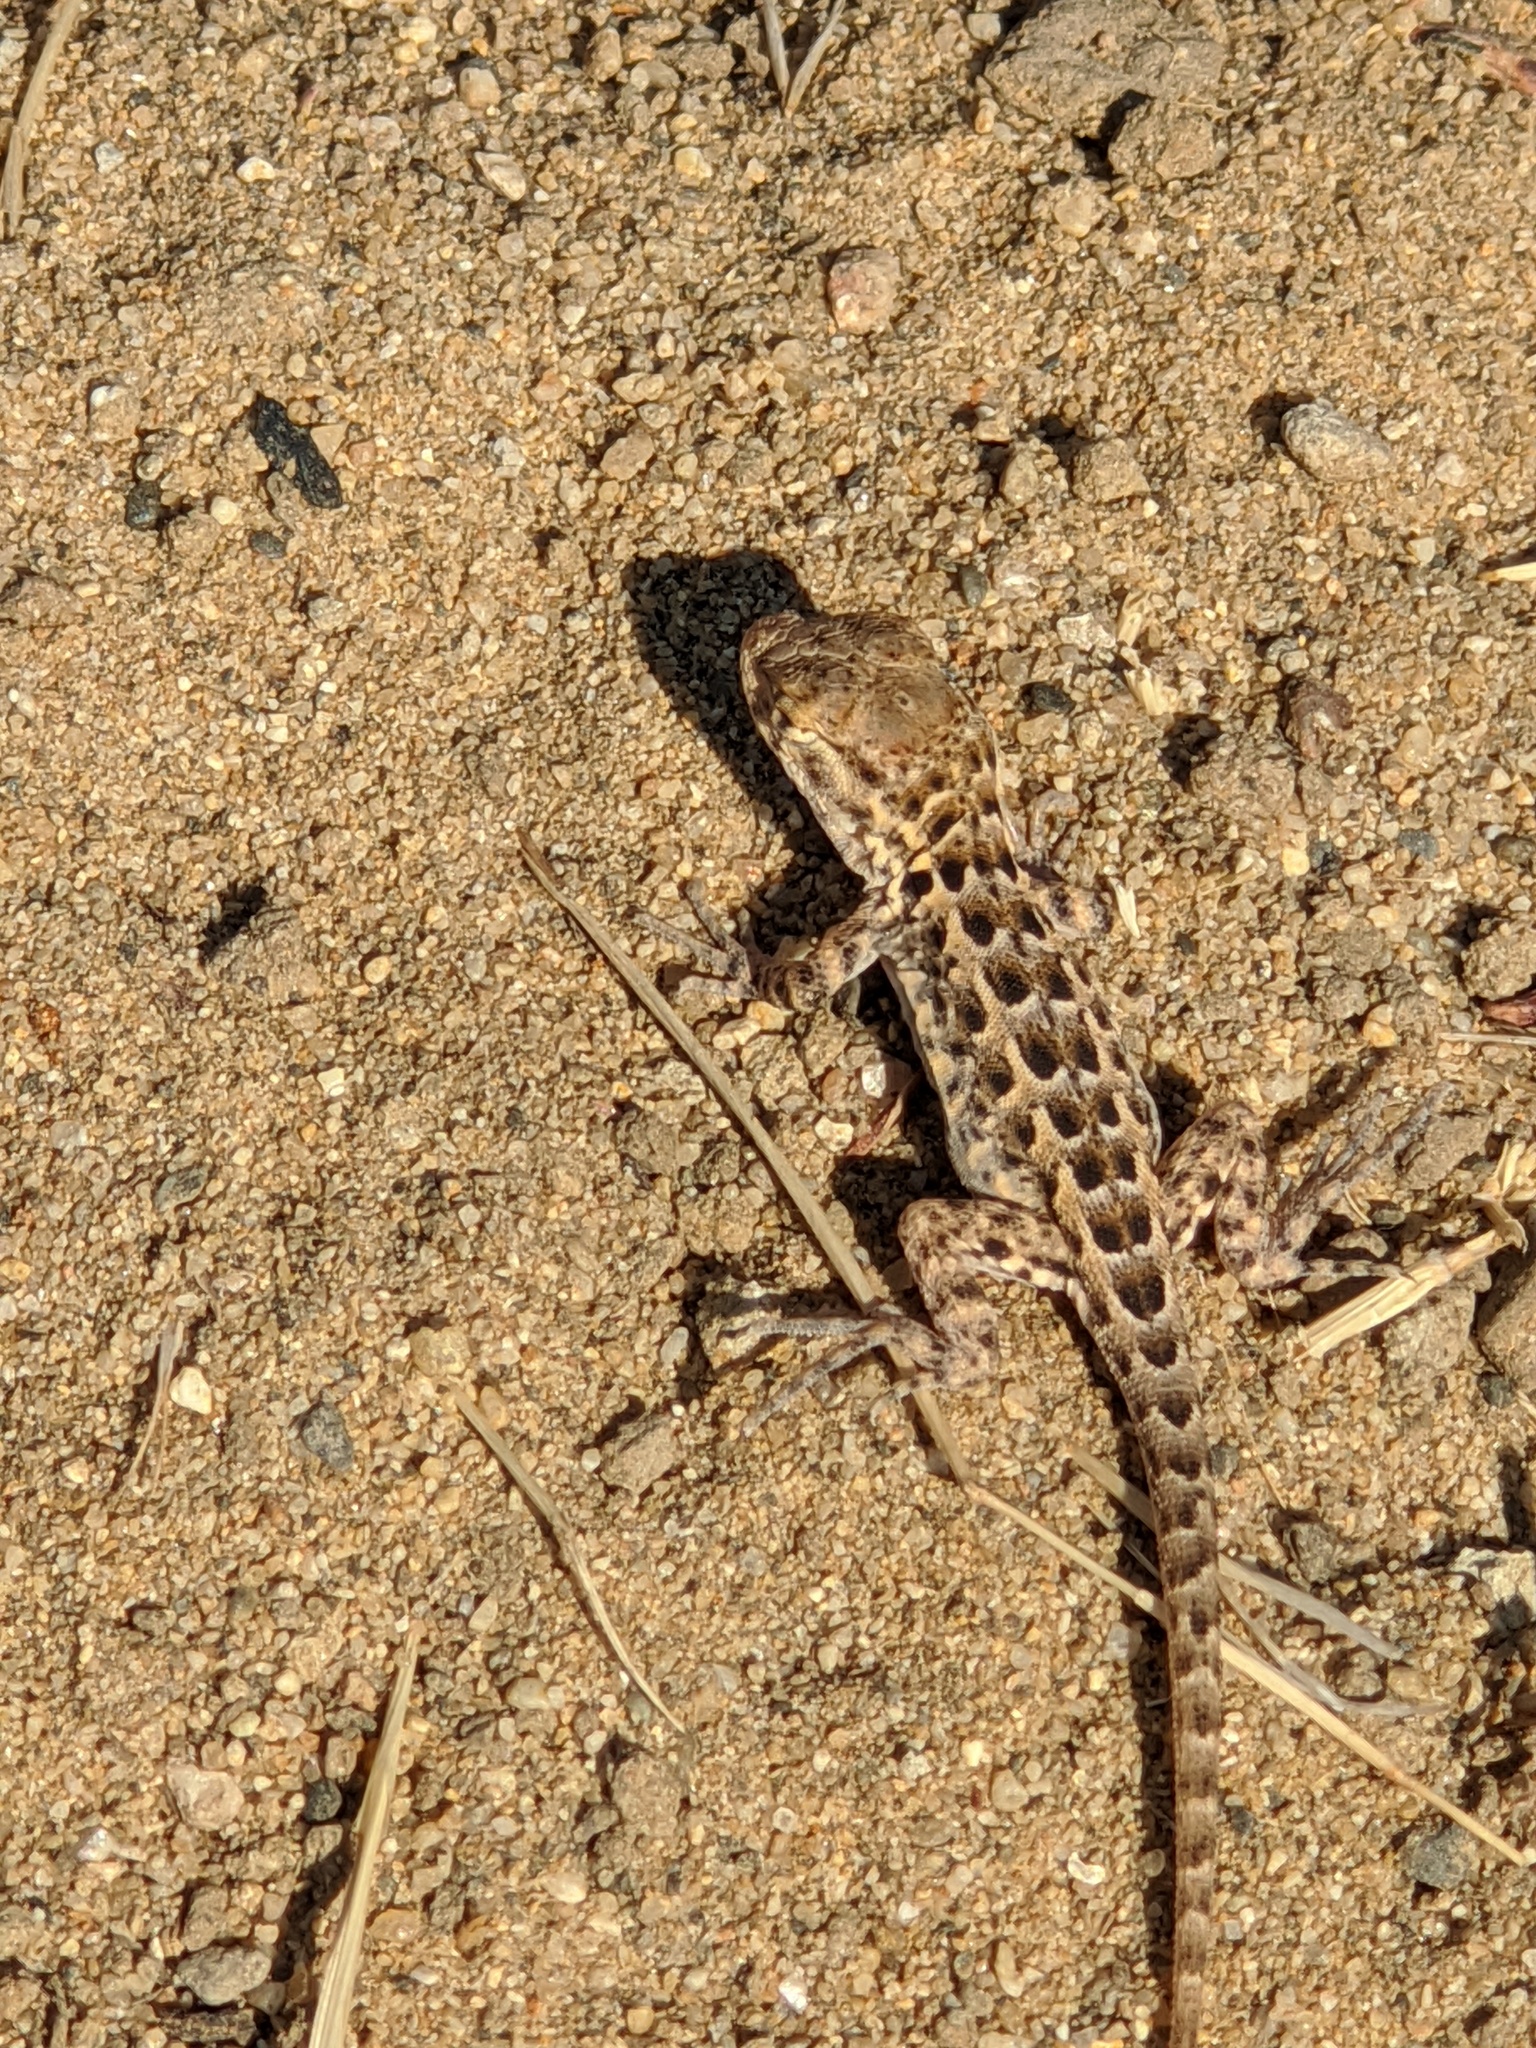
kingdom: Animalia
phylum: Chordata
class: Squamata
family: Phrynosomatidae
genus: Uta
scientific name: Uta stansburiana
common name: Side-blotched lizard
